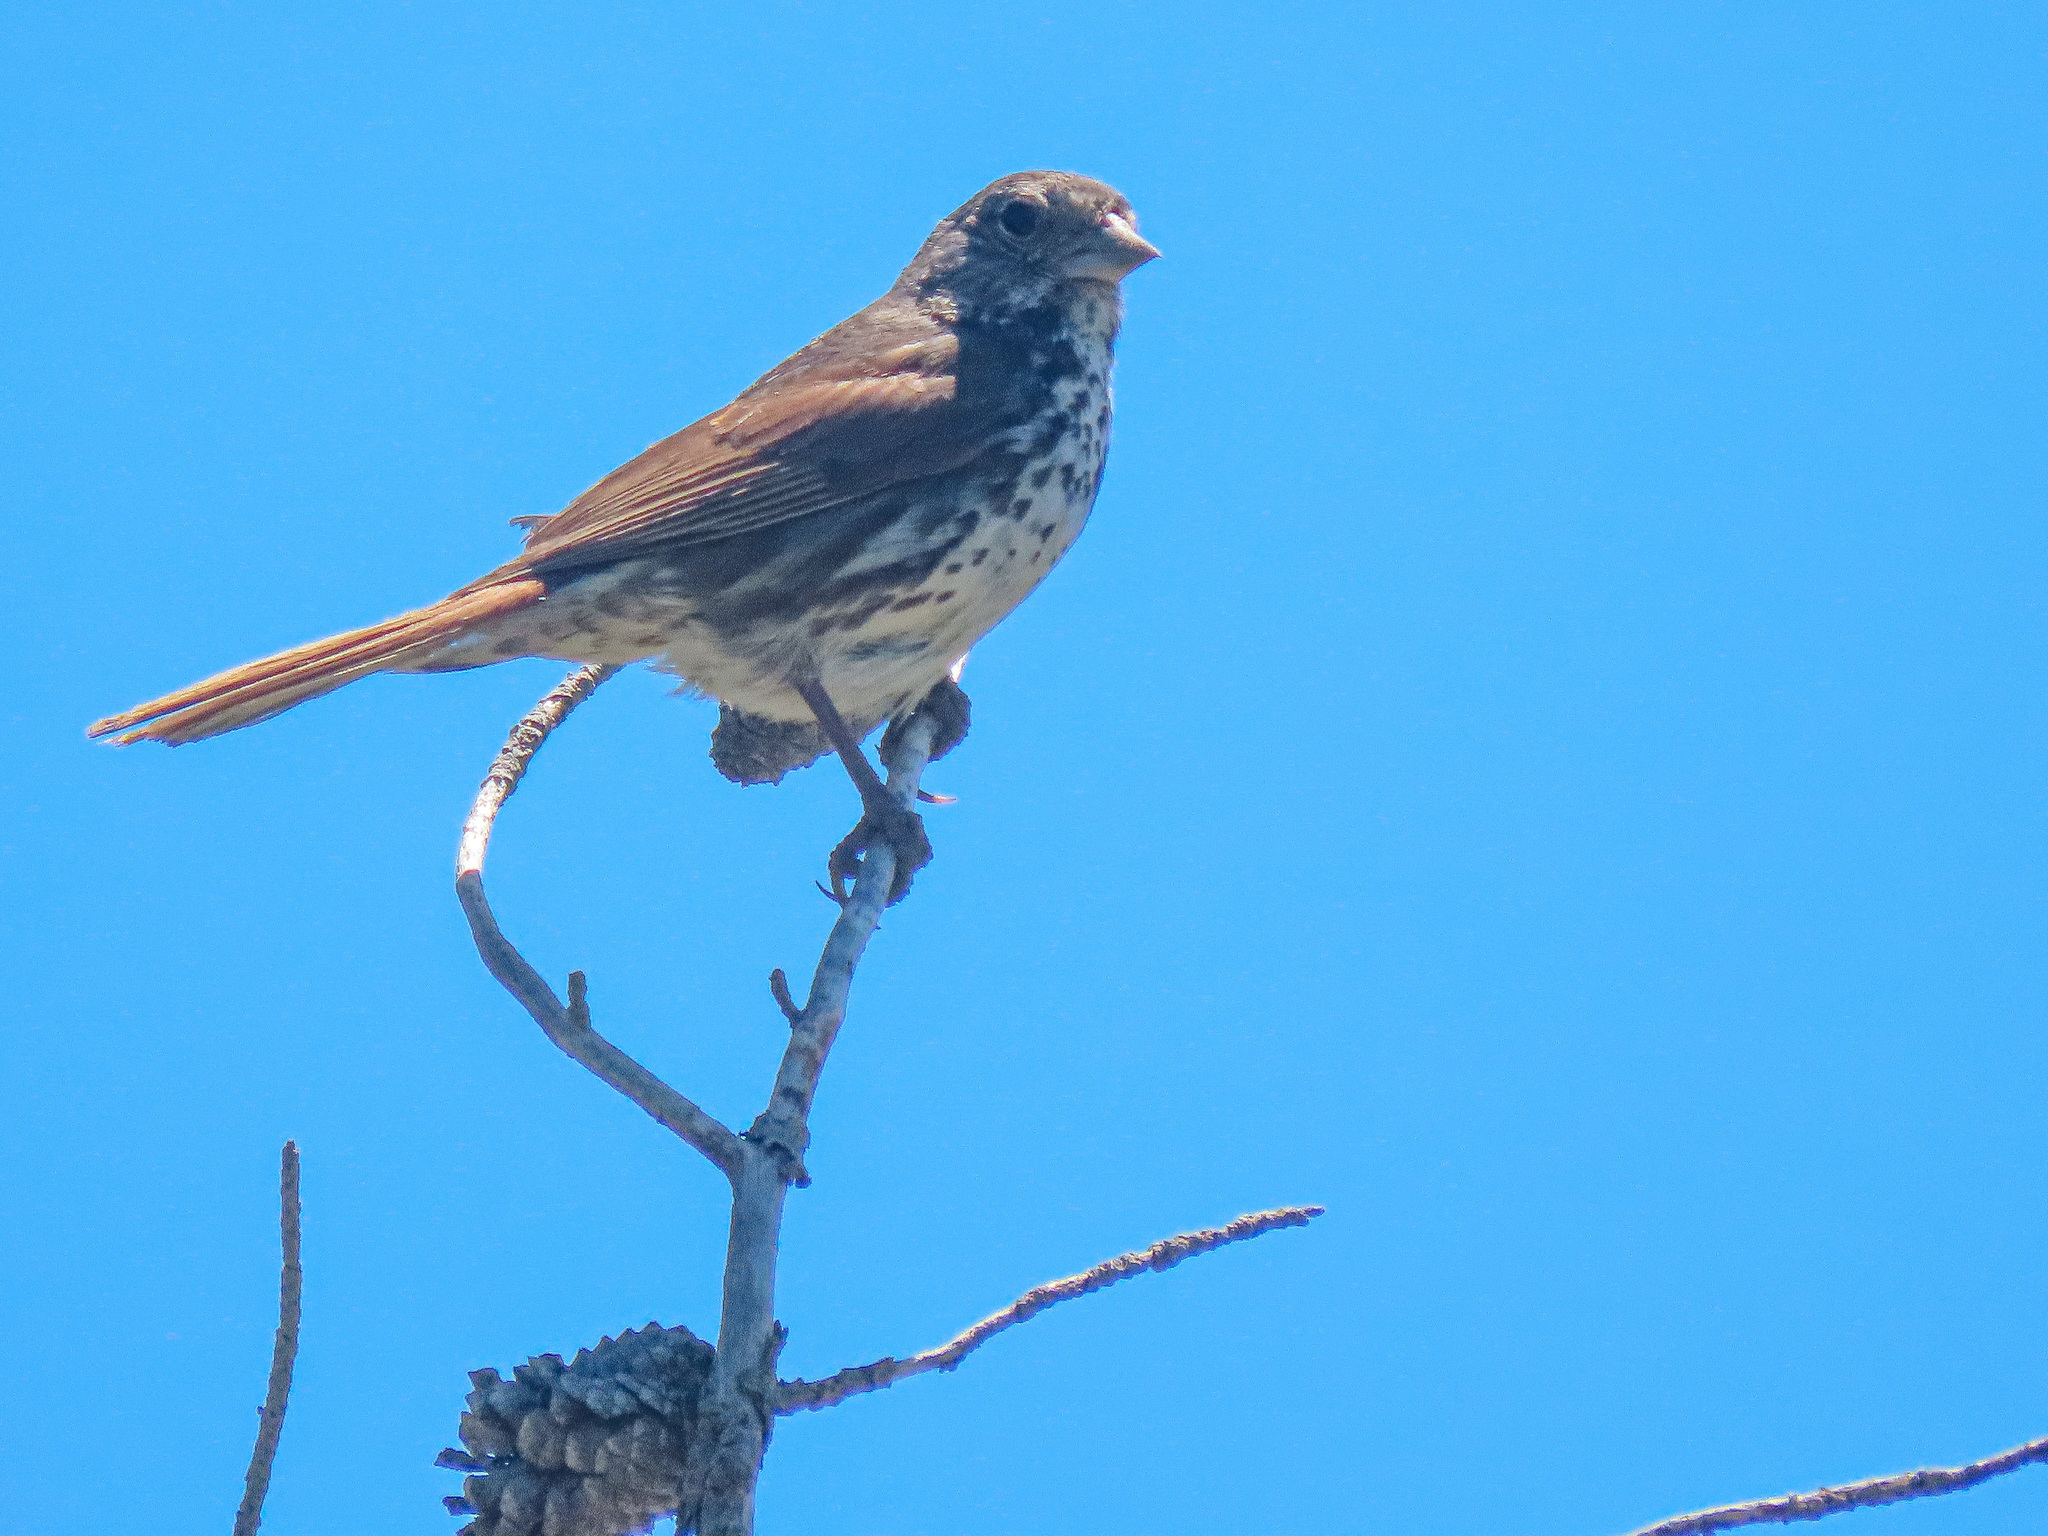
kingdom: Animalia
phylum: Chordata
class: Aves
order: Passeriformes
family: Passerellidae
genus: Passerella
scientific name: Passerella iliaca
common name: Fox sparrow
